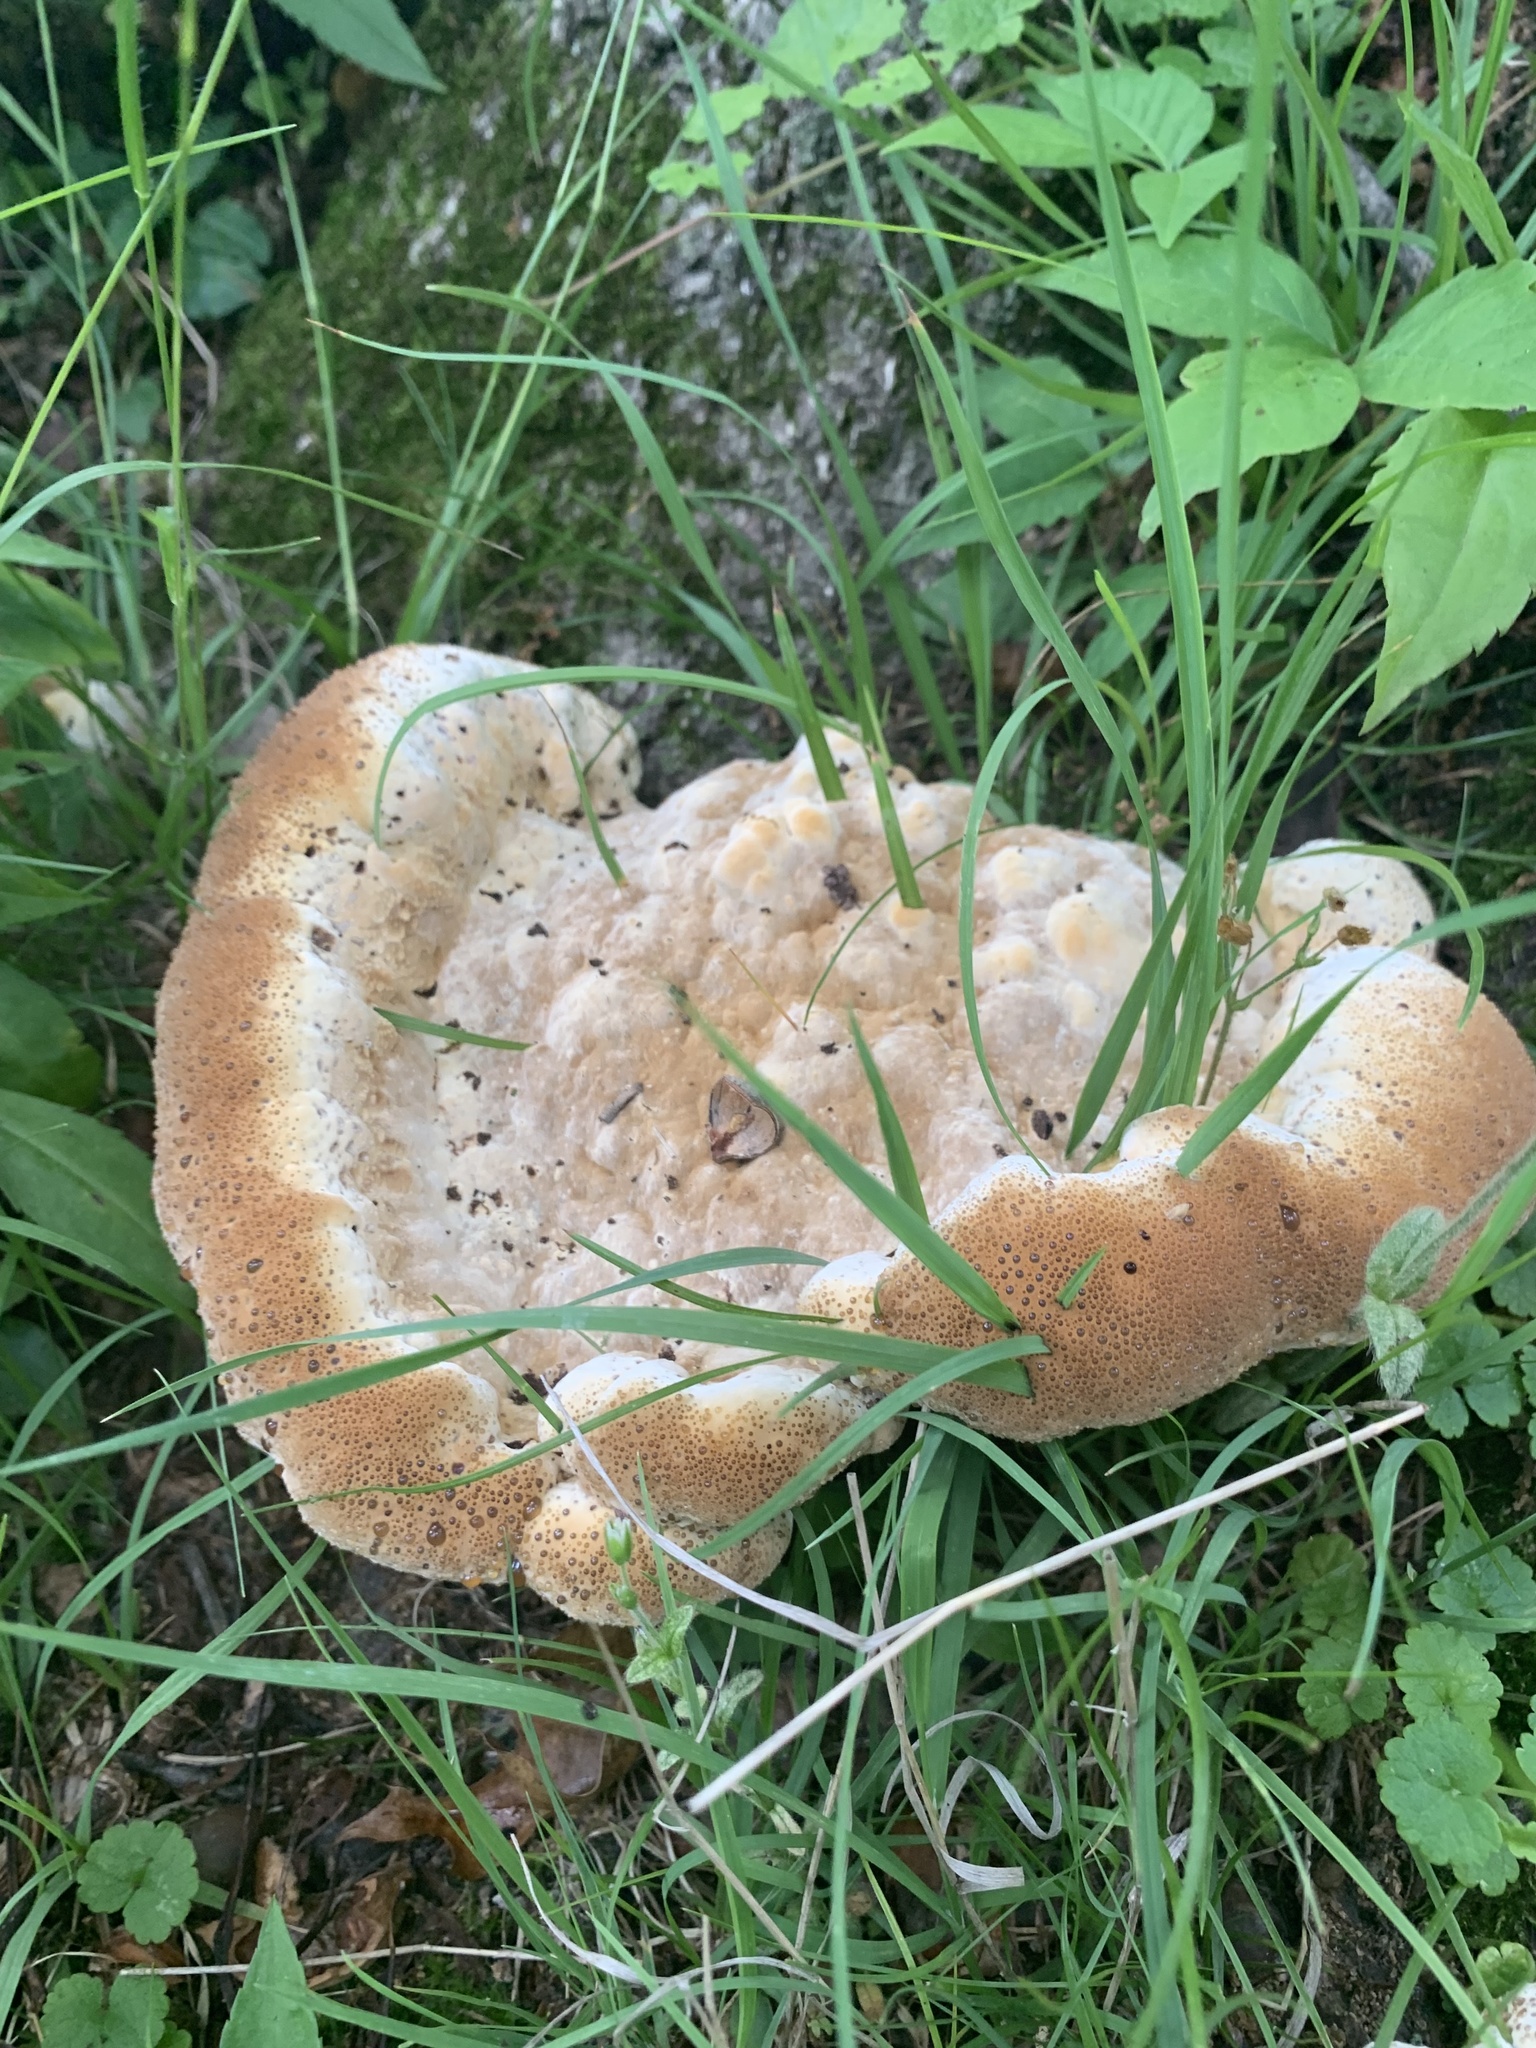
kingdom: Fungi
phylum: Basidiomycota
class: Agaricomycetes
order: Hymenochaetales
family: Hymenochaetaceae
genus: Pseudoinonotus
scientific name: Pseudoinonotus dryadeus
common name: Oak bracket
